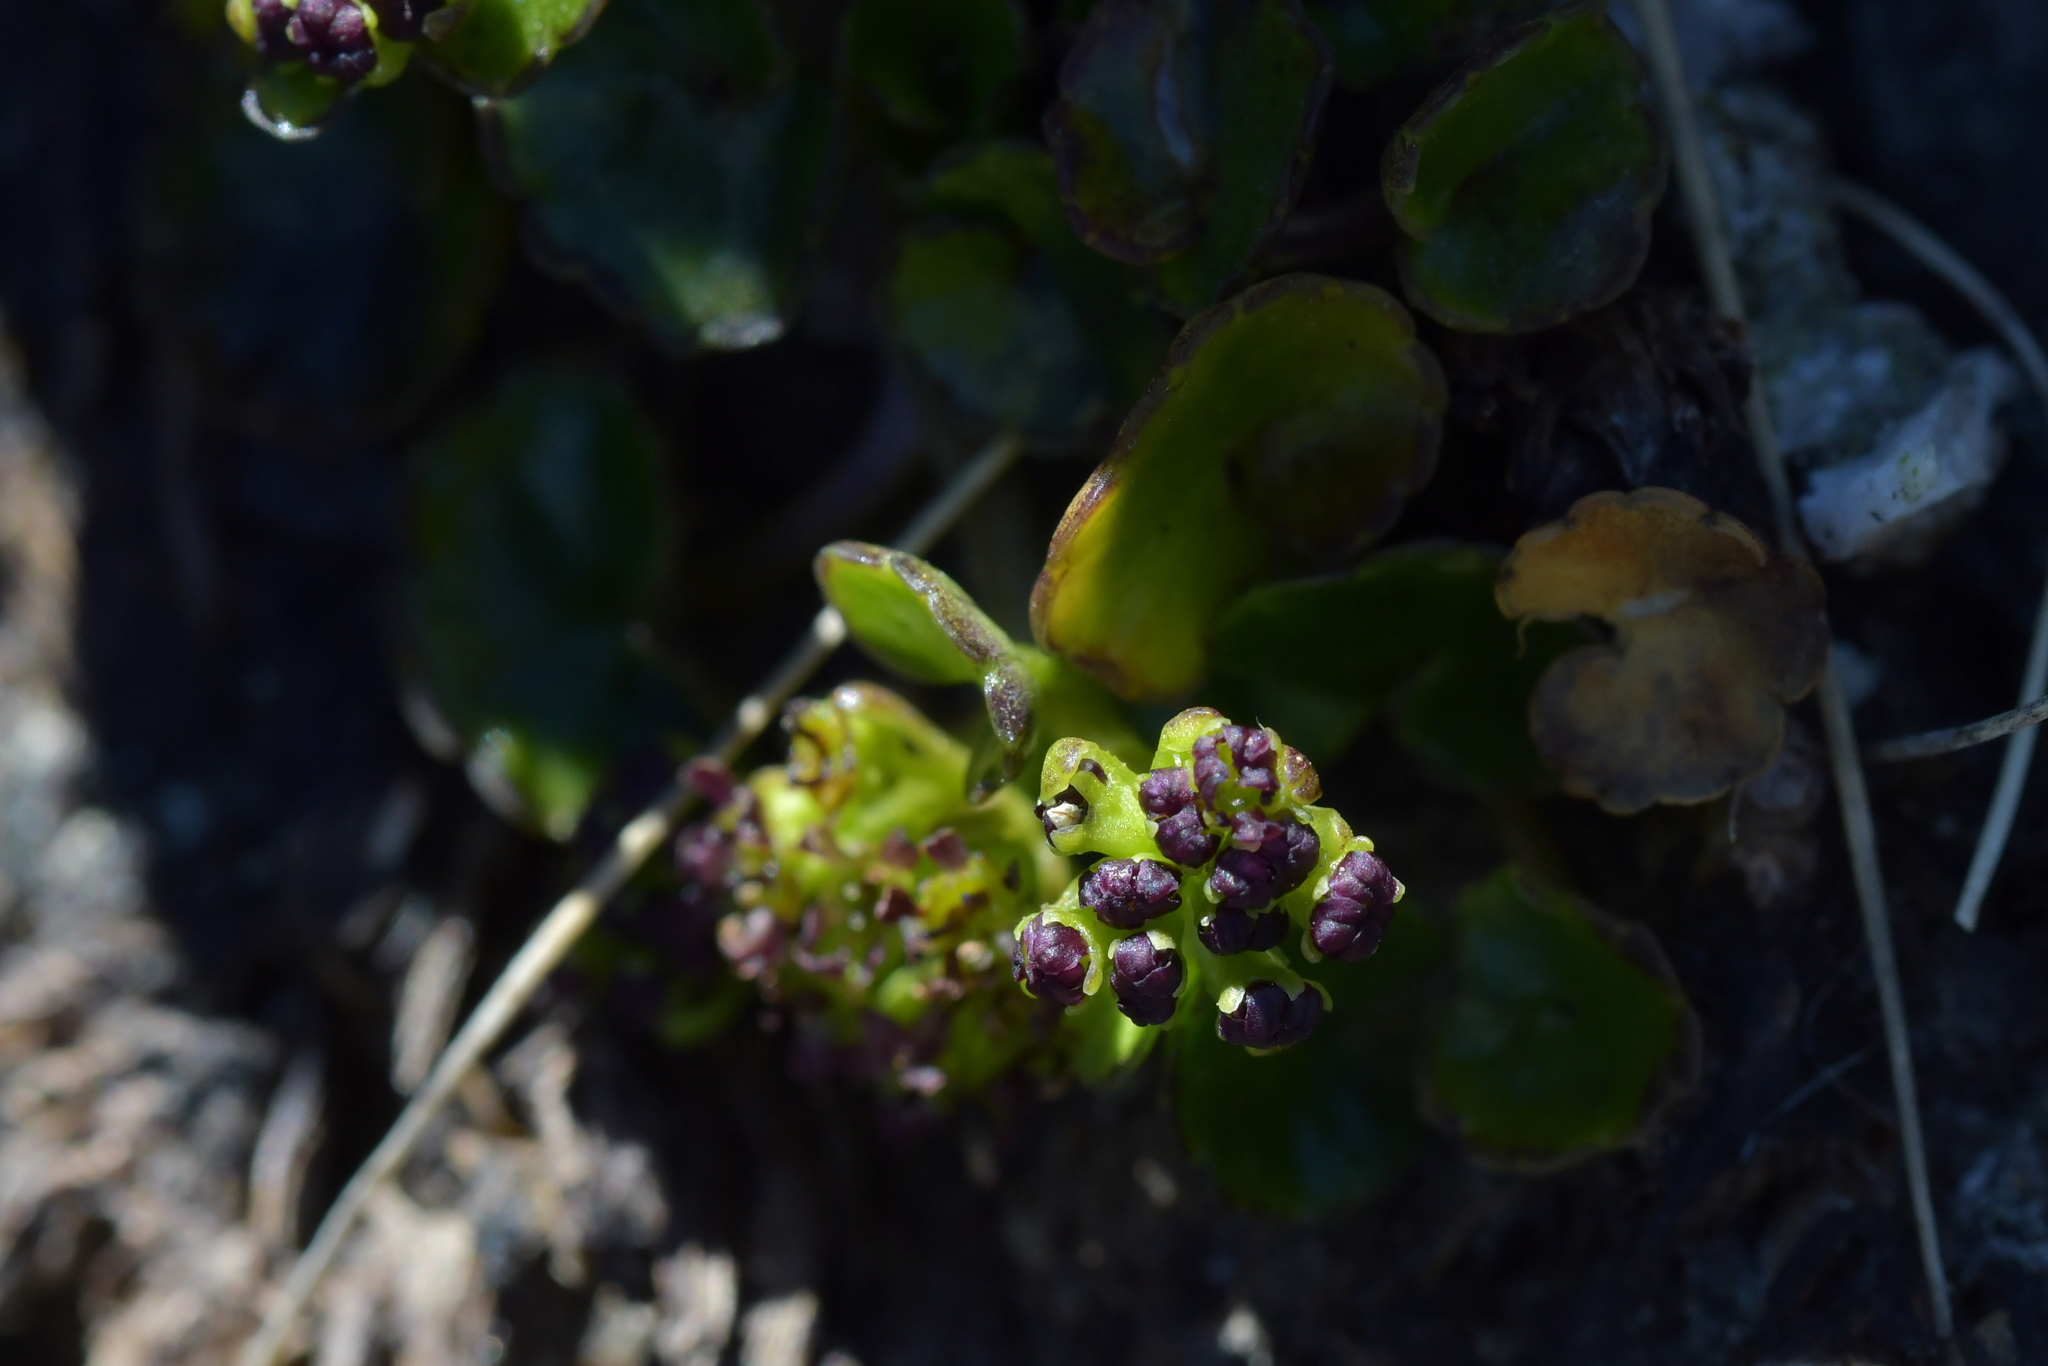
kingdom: Plantae
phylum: Tracheophyta
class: Magnoliopsida
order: Apiales
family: Apiaceae
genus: Azorella
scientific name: Azorella haastii
